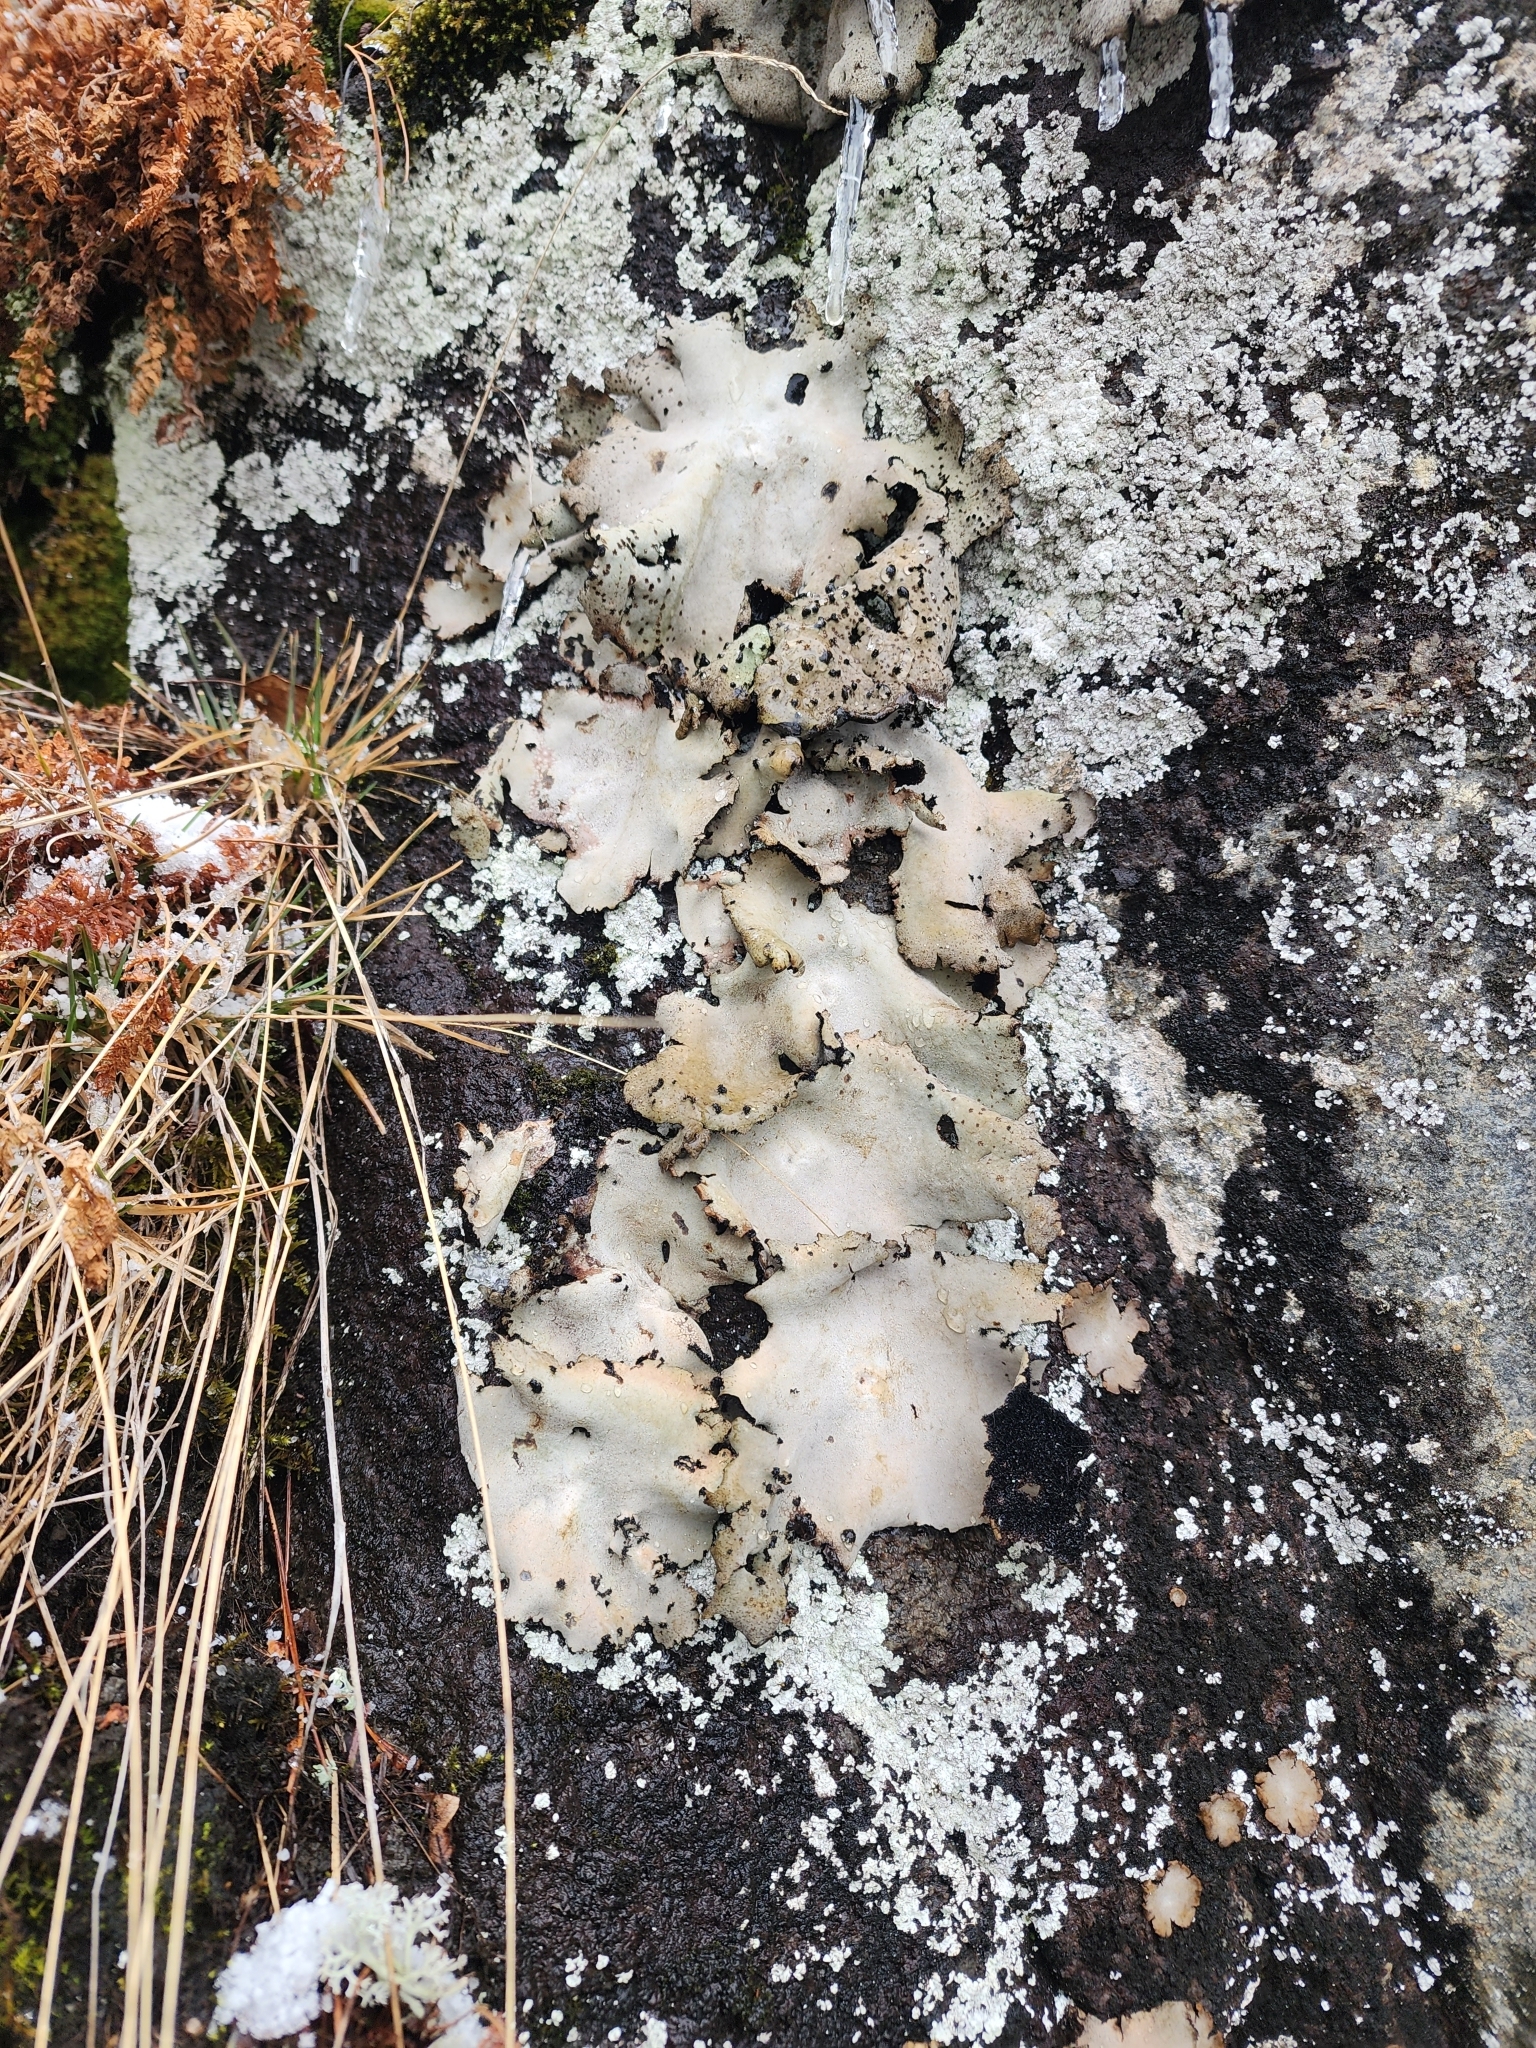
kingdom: Fungi
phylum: Ascomycota
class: Lecanoromycetes
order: Umbilicariales
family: Umbilicariaceae
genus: Umbilicaria
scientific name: Umbilicaria americana
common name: Frosted rock tripe
